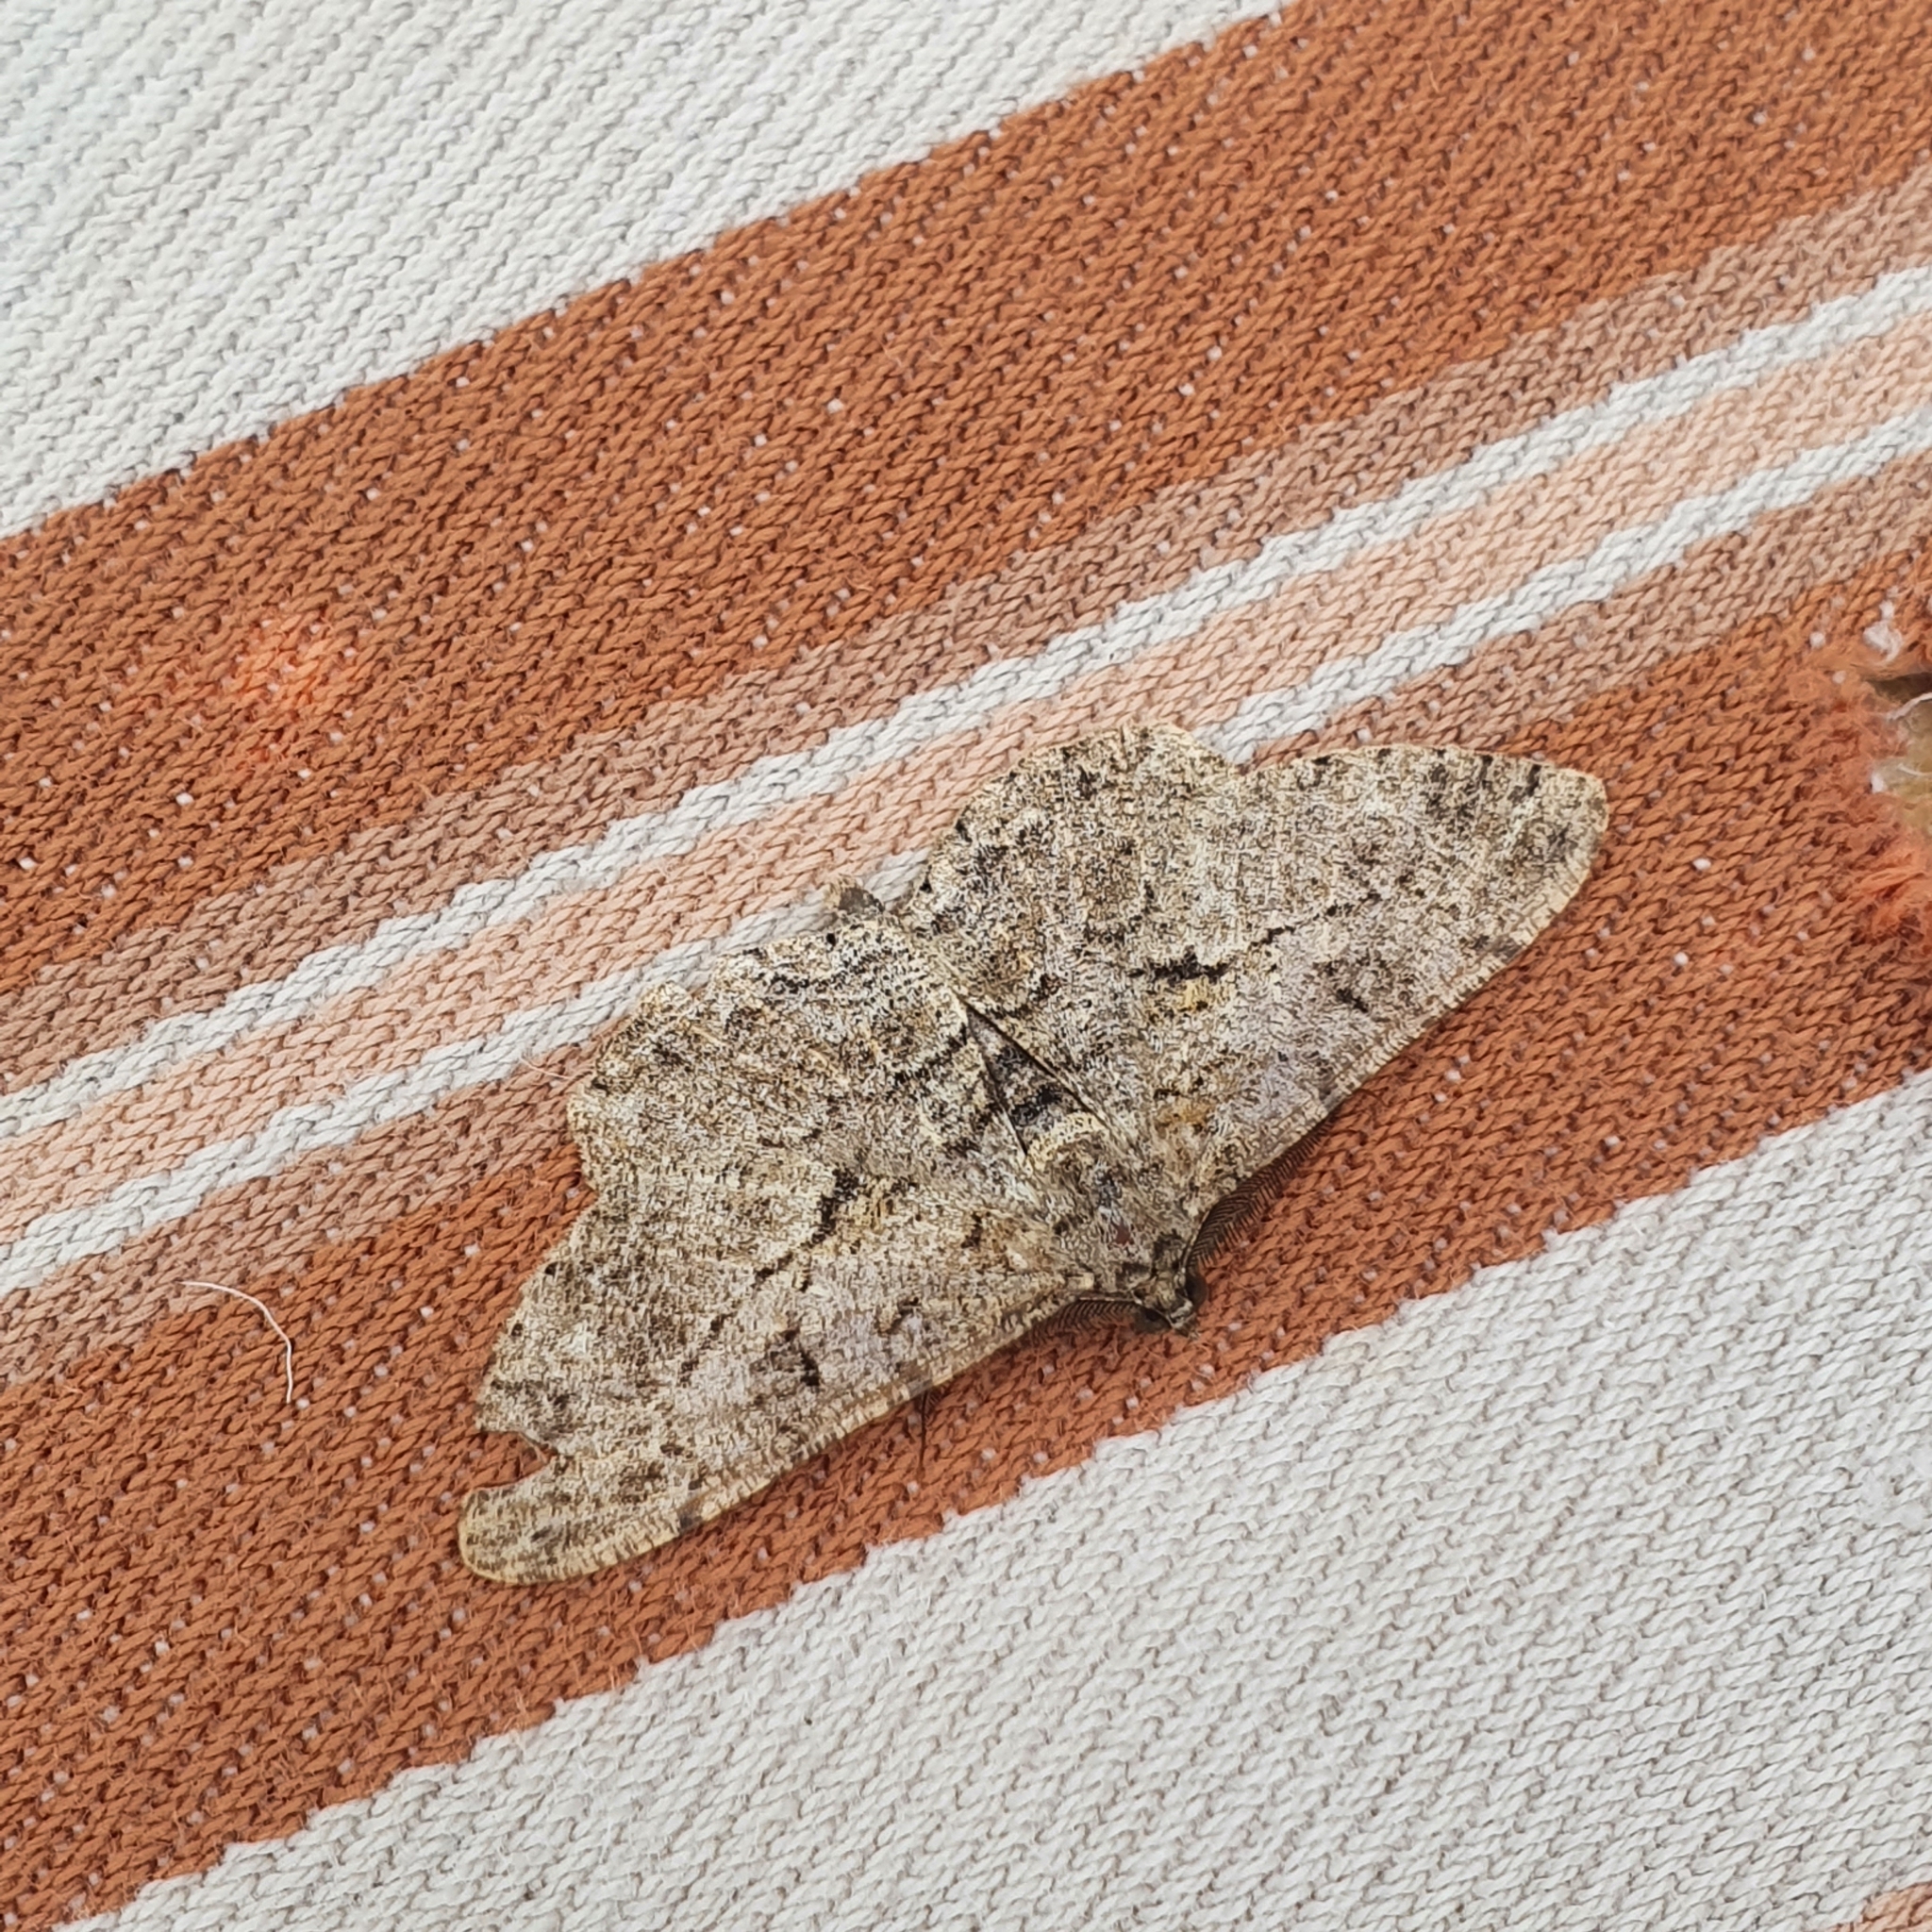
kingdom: Animalia
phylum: Arthropoda
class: Insecta
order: Lepidoptera
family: Geometridae
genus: Peribatodes
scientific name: Peribatodes rhomboidaria
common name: Willow beauty
